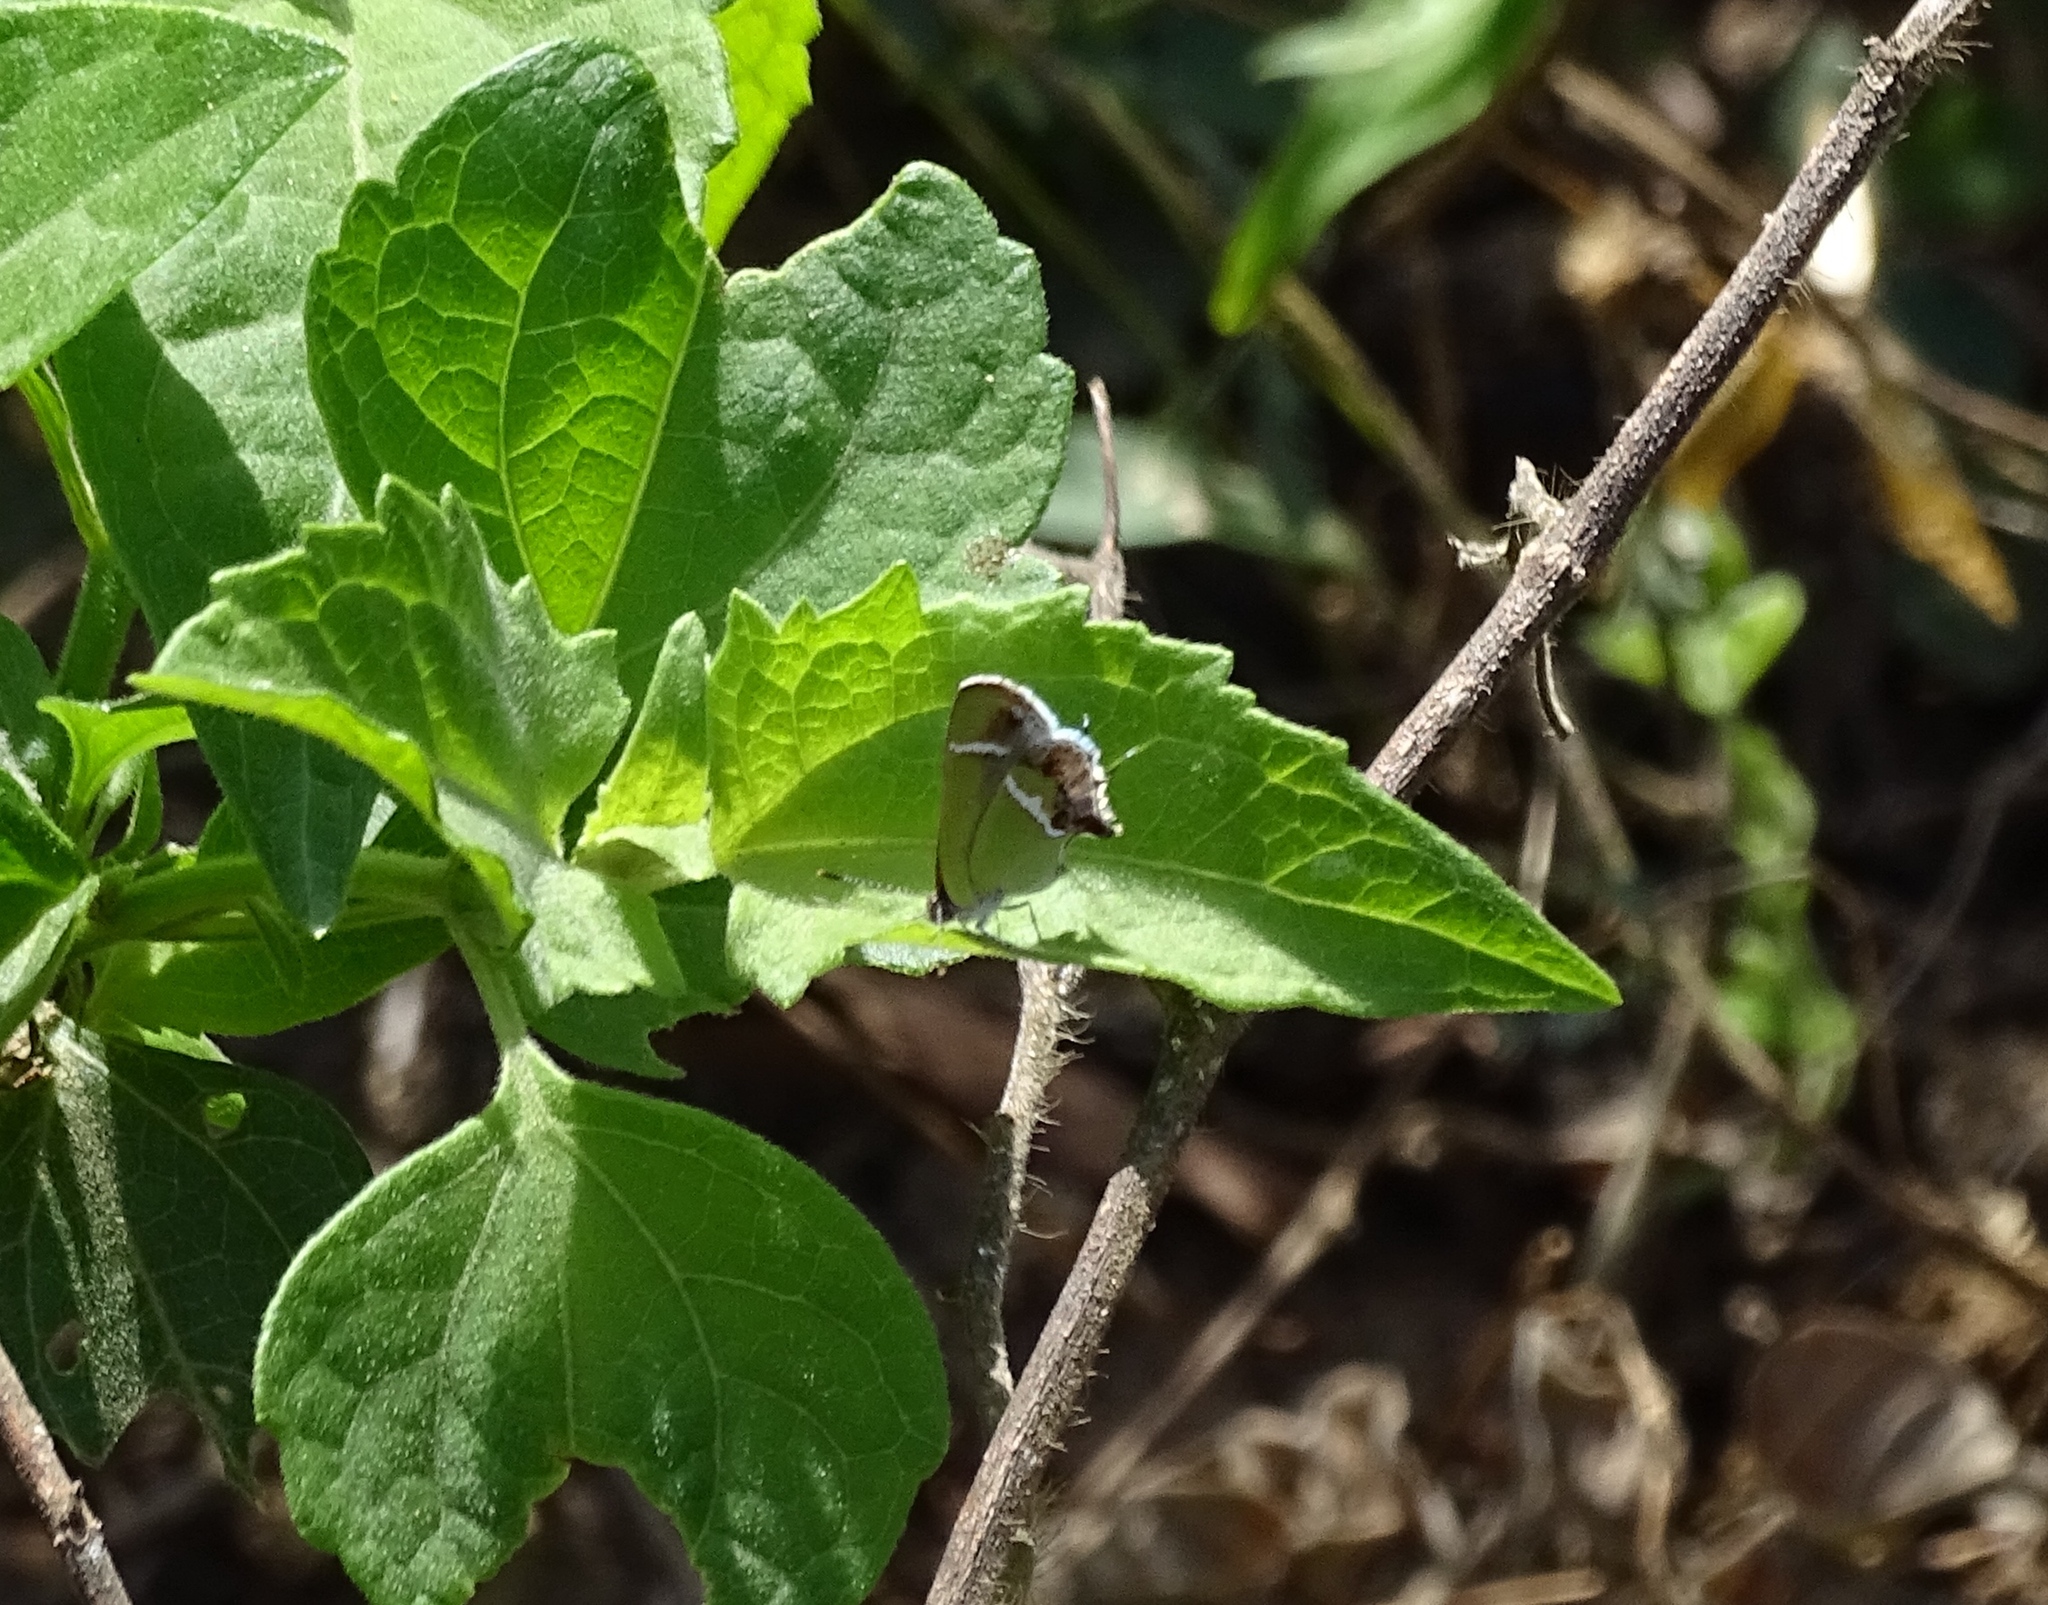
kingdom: Animalia
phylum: Arthropoda
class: Insecta
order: Lepidoptera
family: Lycaenidae
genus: Chlorostrymon
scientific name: Chlorostrymon simaethis
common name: Silver-banded hairstreak
